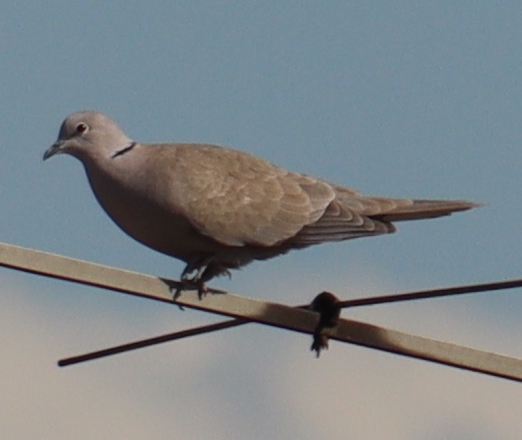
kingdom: Animalia
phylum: Chordata
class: Aves
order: Columbiformes
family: Columbidae
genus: Streptopelia
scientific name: Streptopelia decaocto
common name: Eurasian collared dove
